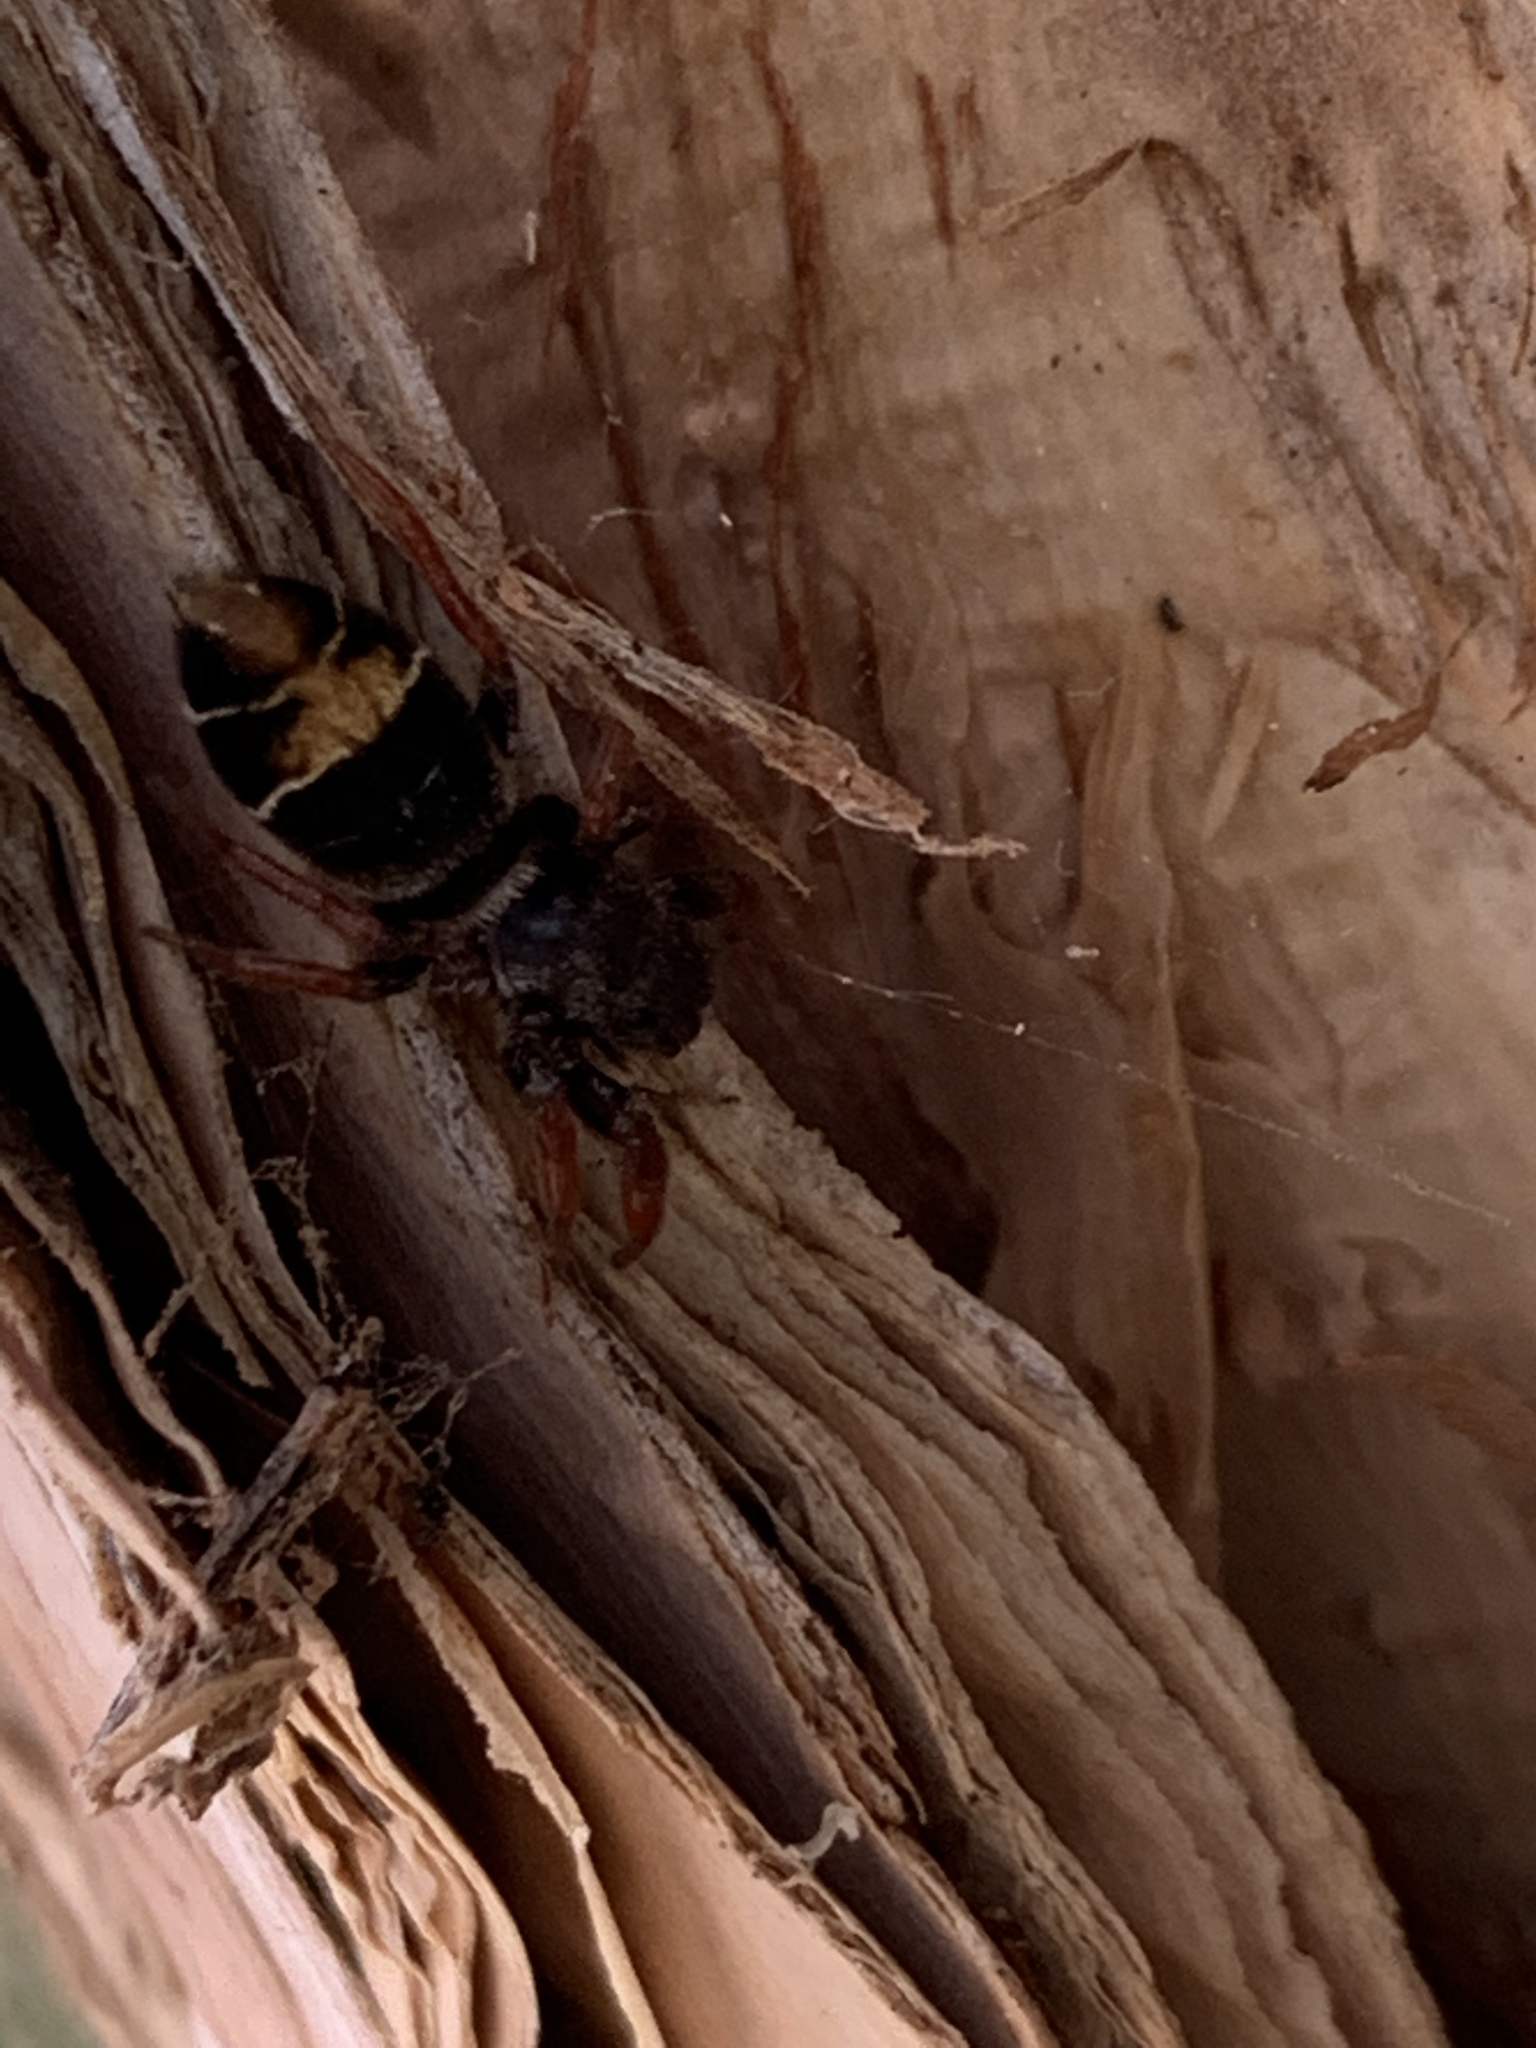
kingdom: Animalia
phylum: Arthropoda
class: Arachnida
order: Araneae
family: Salticidae
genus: Apricia
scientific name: Apricia jovialis
